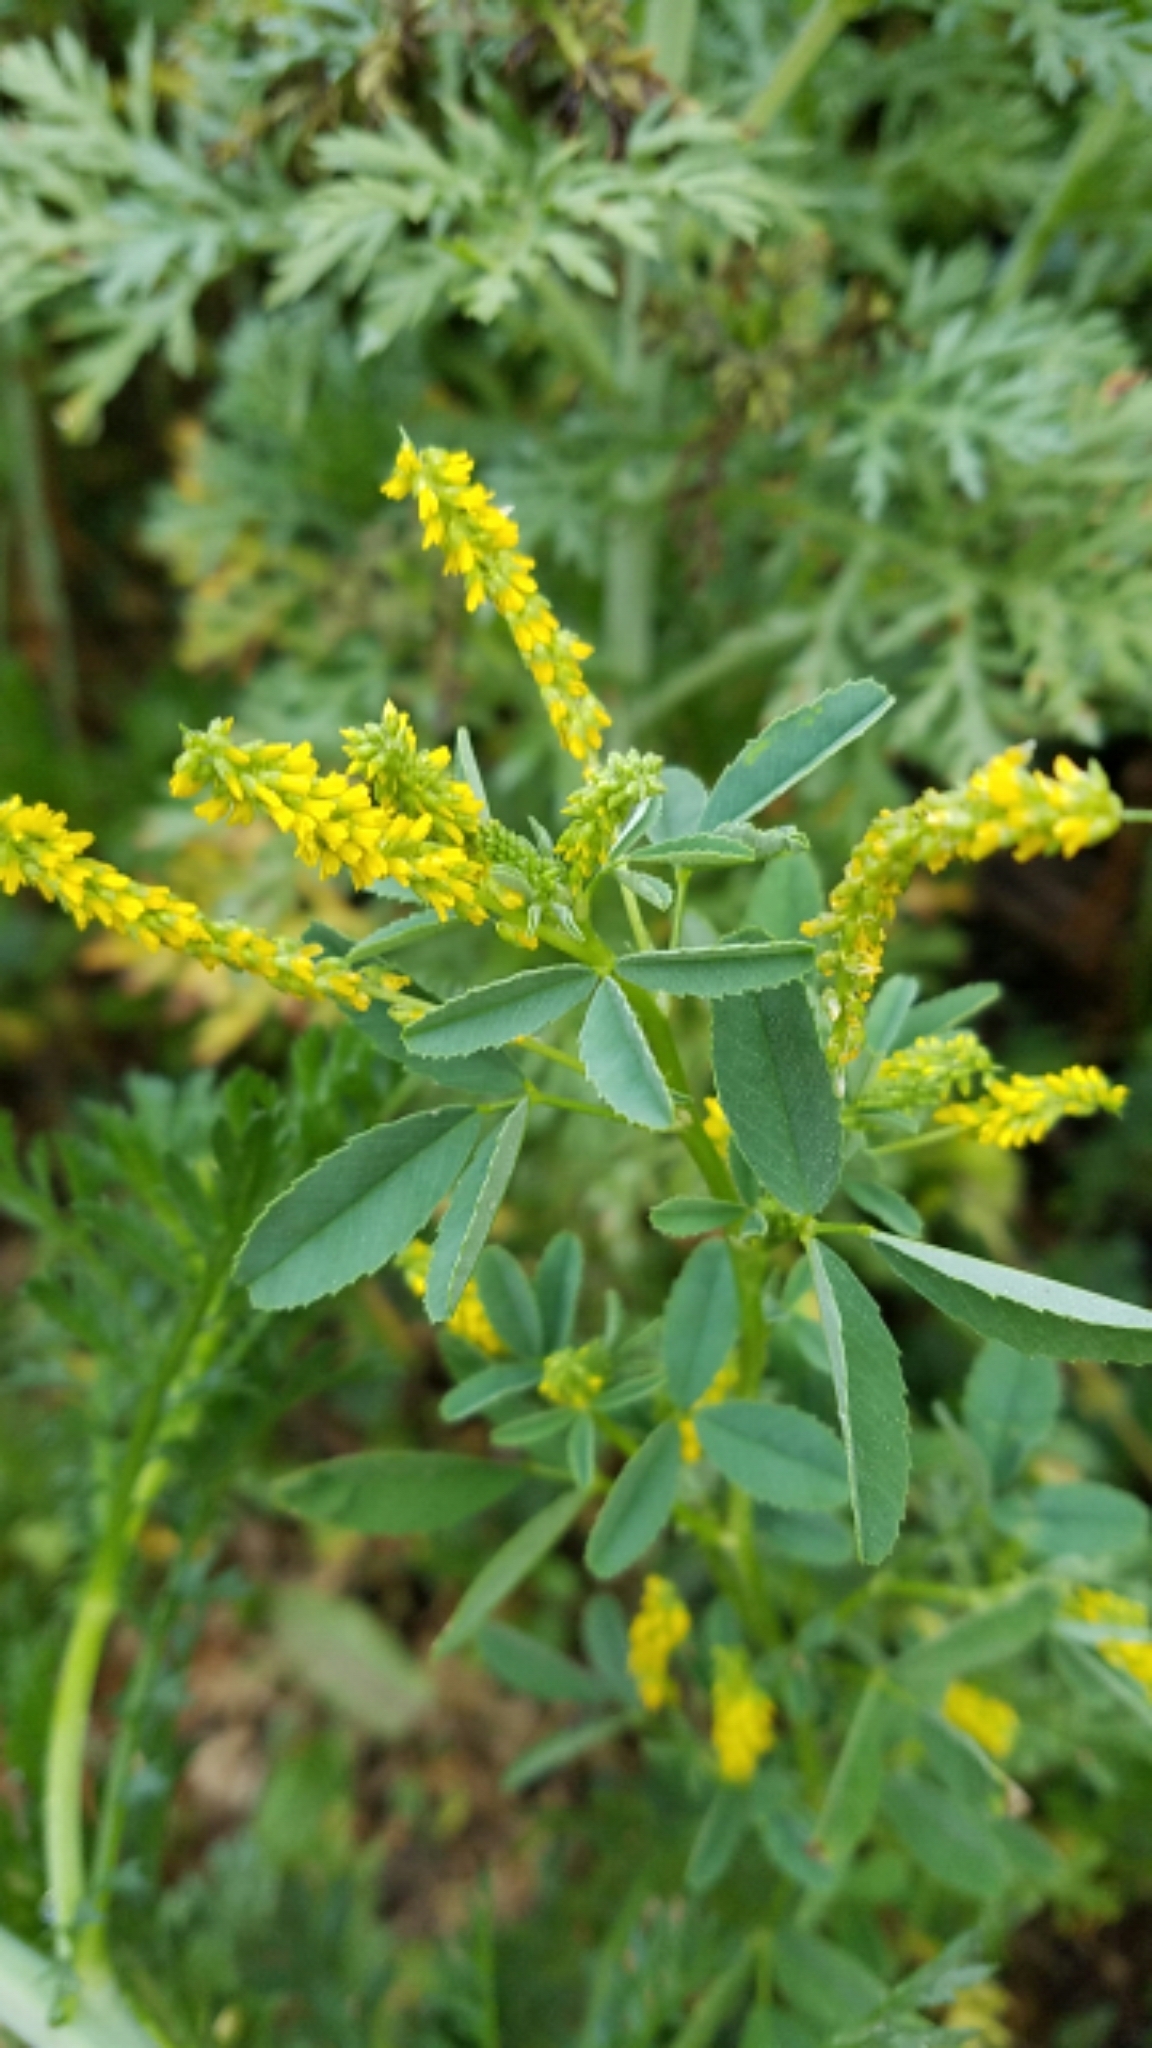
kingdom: Plantae
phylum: Tracheophyta
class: Magnoliopsida
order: Fabales
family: Fabaceae
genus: Melilotus
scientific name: Melilotus indicus
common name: Small melilot
